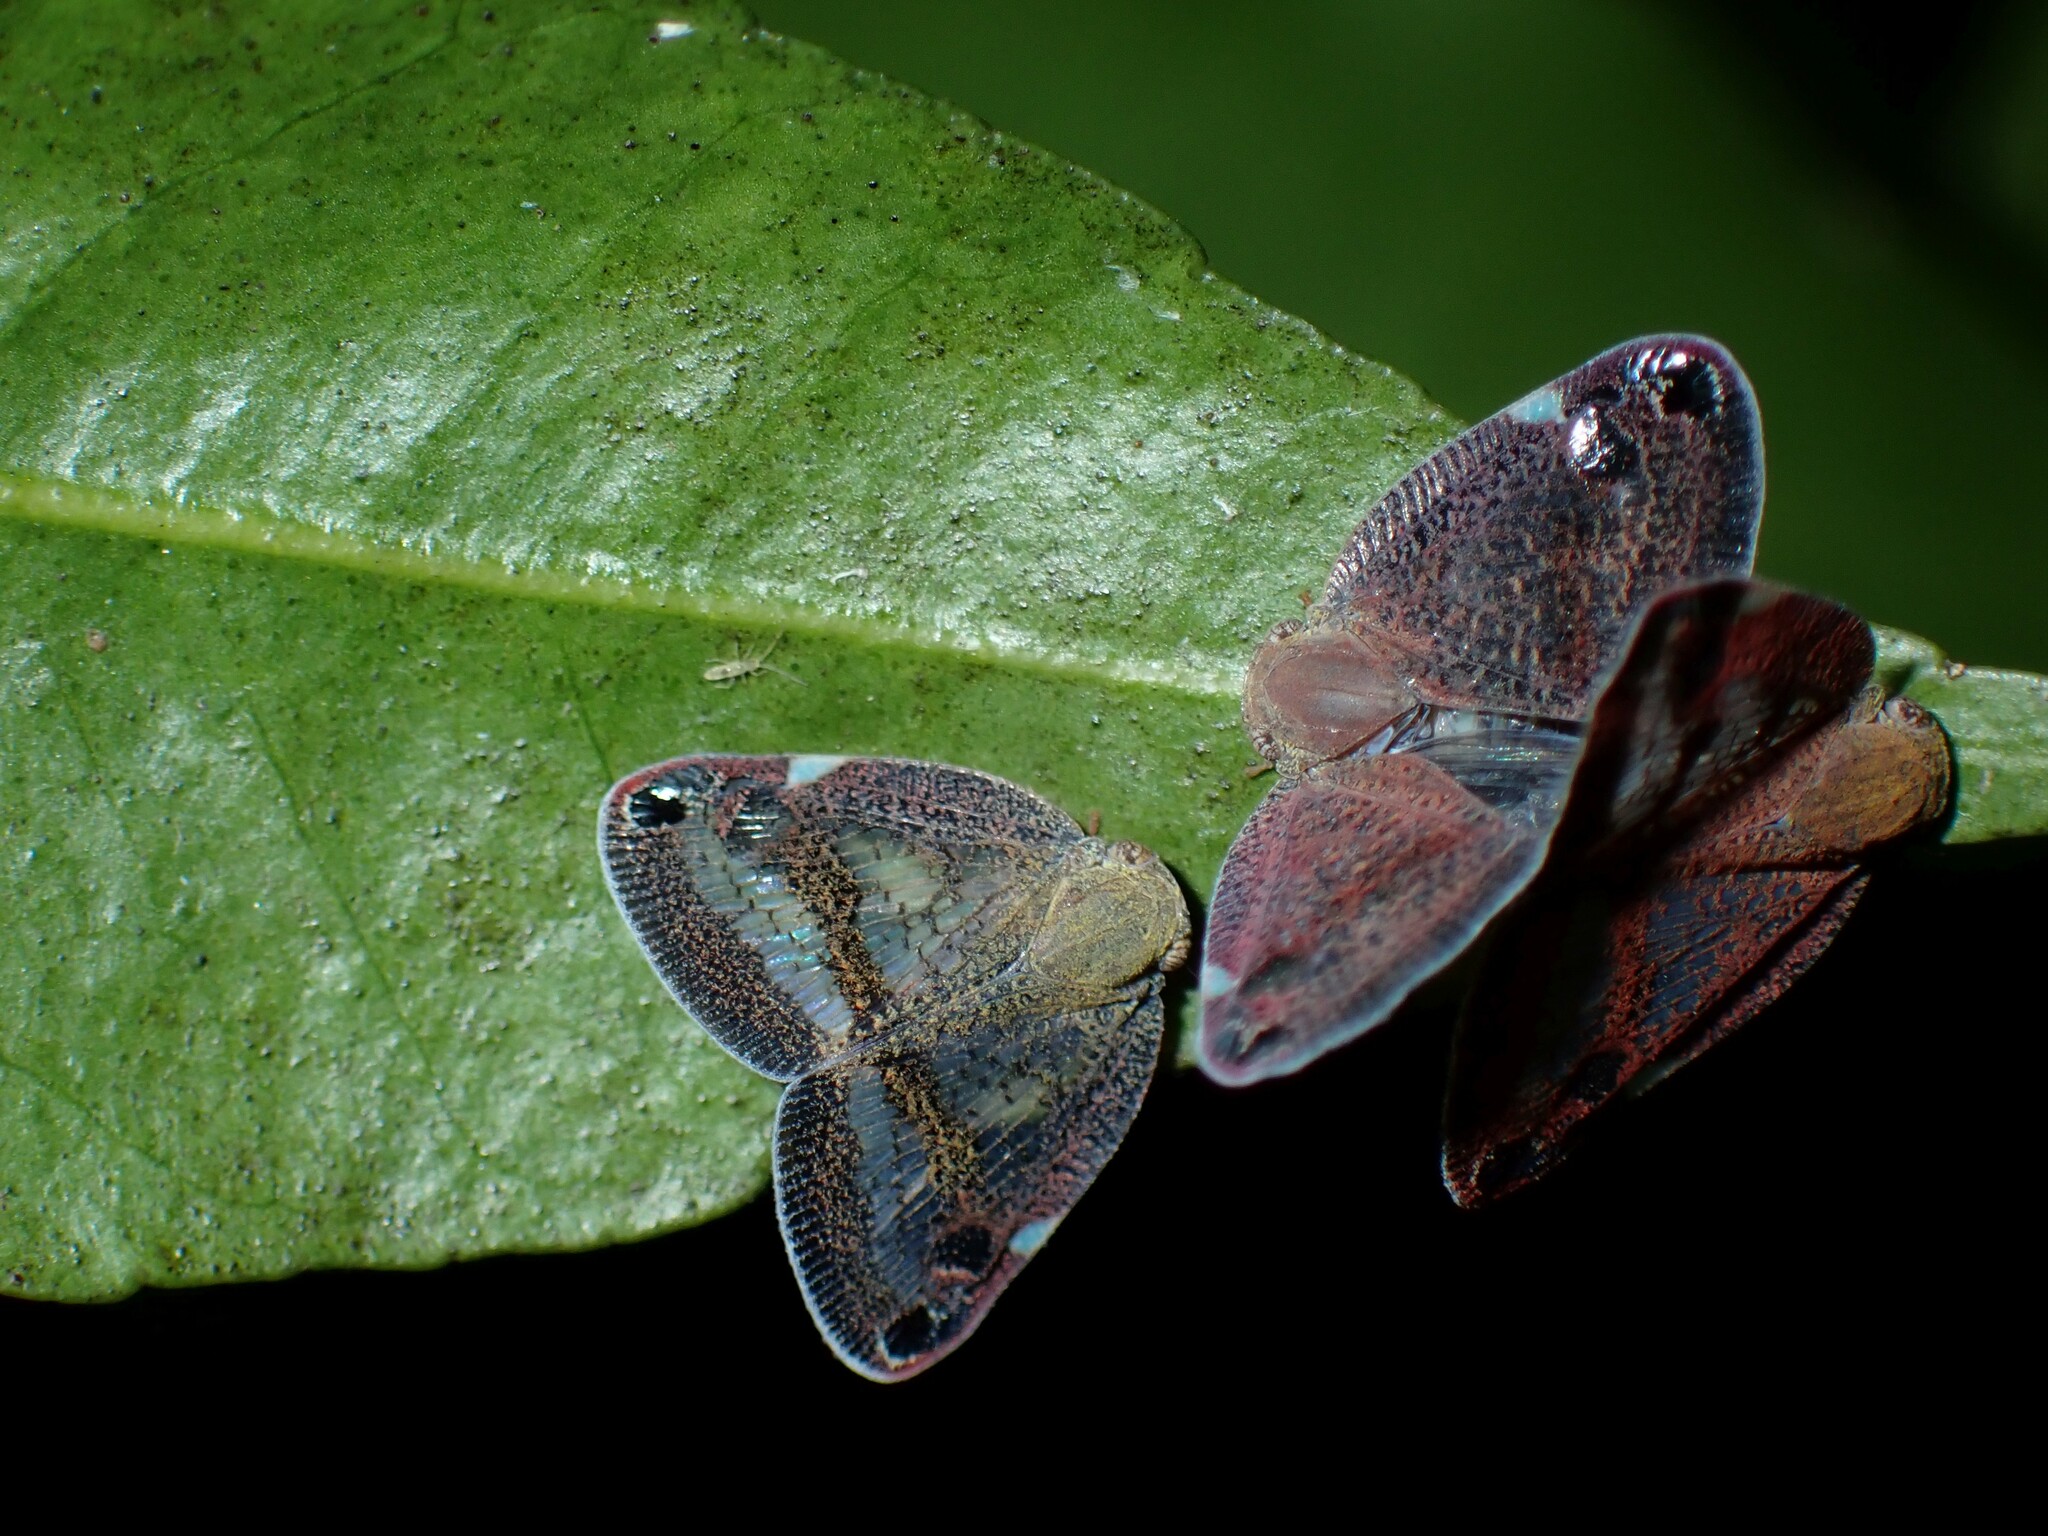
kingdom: Animalia
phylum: Arthropoda
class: Insecta
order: Hemiptera
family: Ricaniidae
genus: Parapiromis
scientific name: Parapiromis translucida
